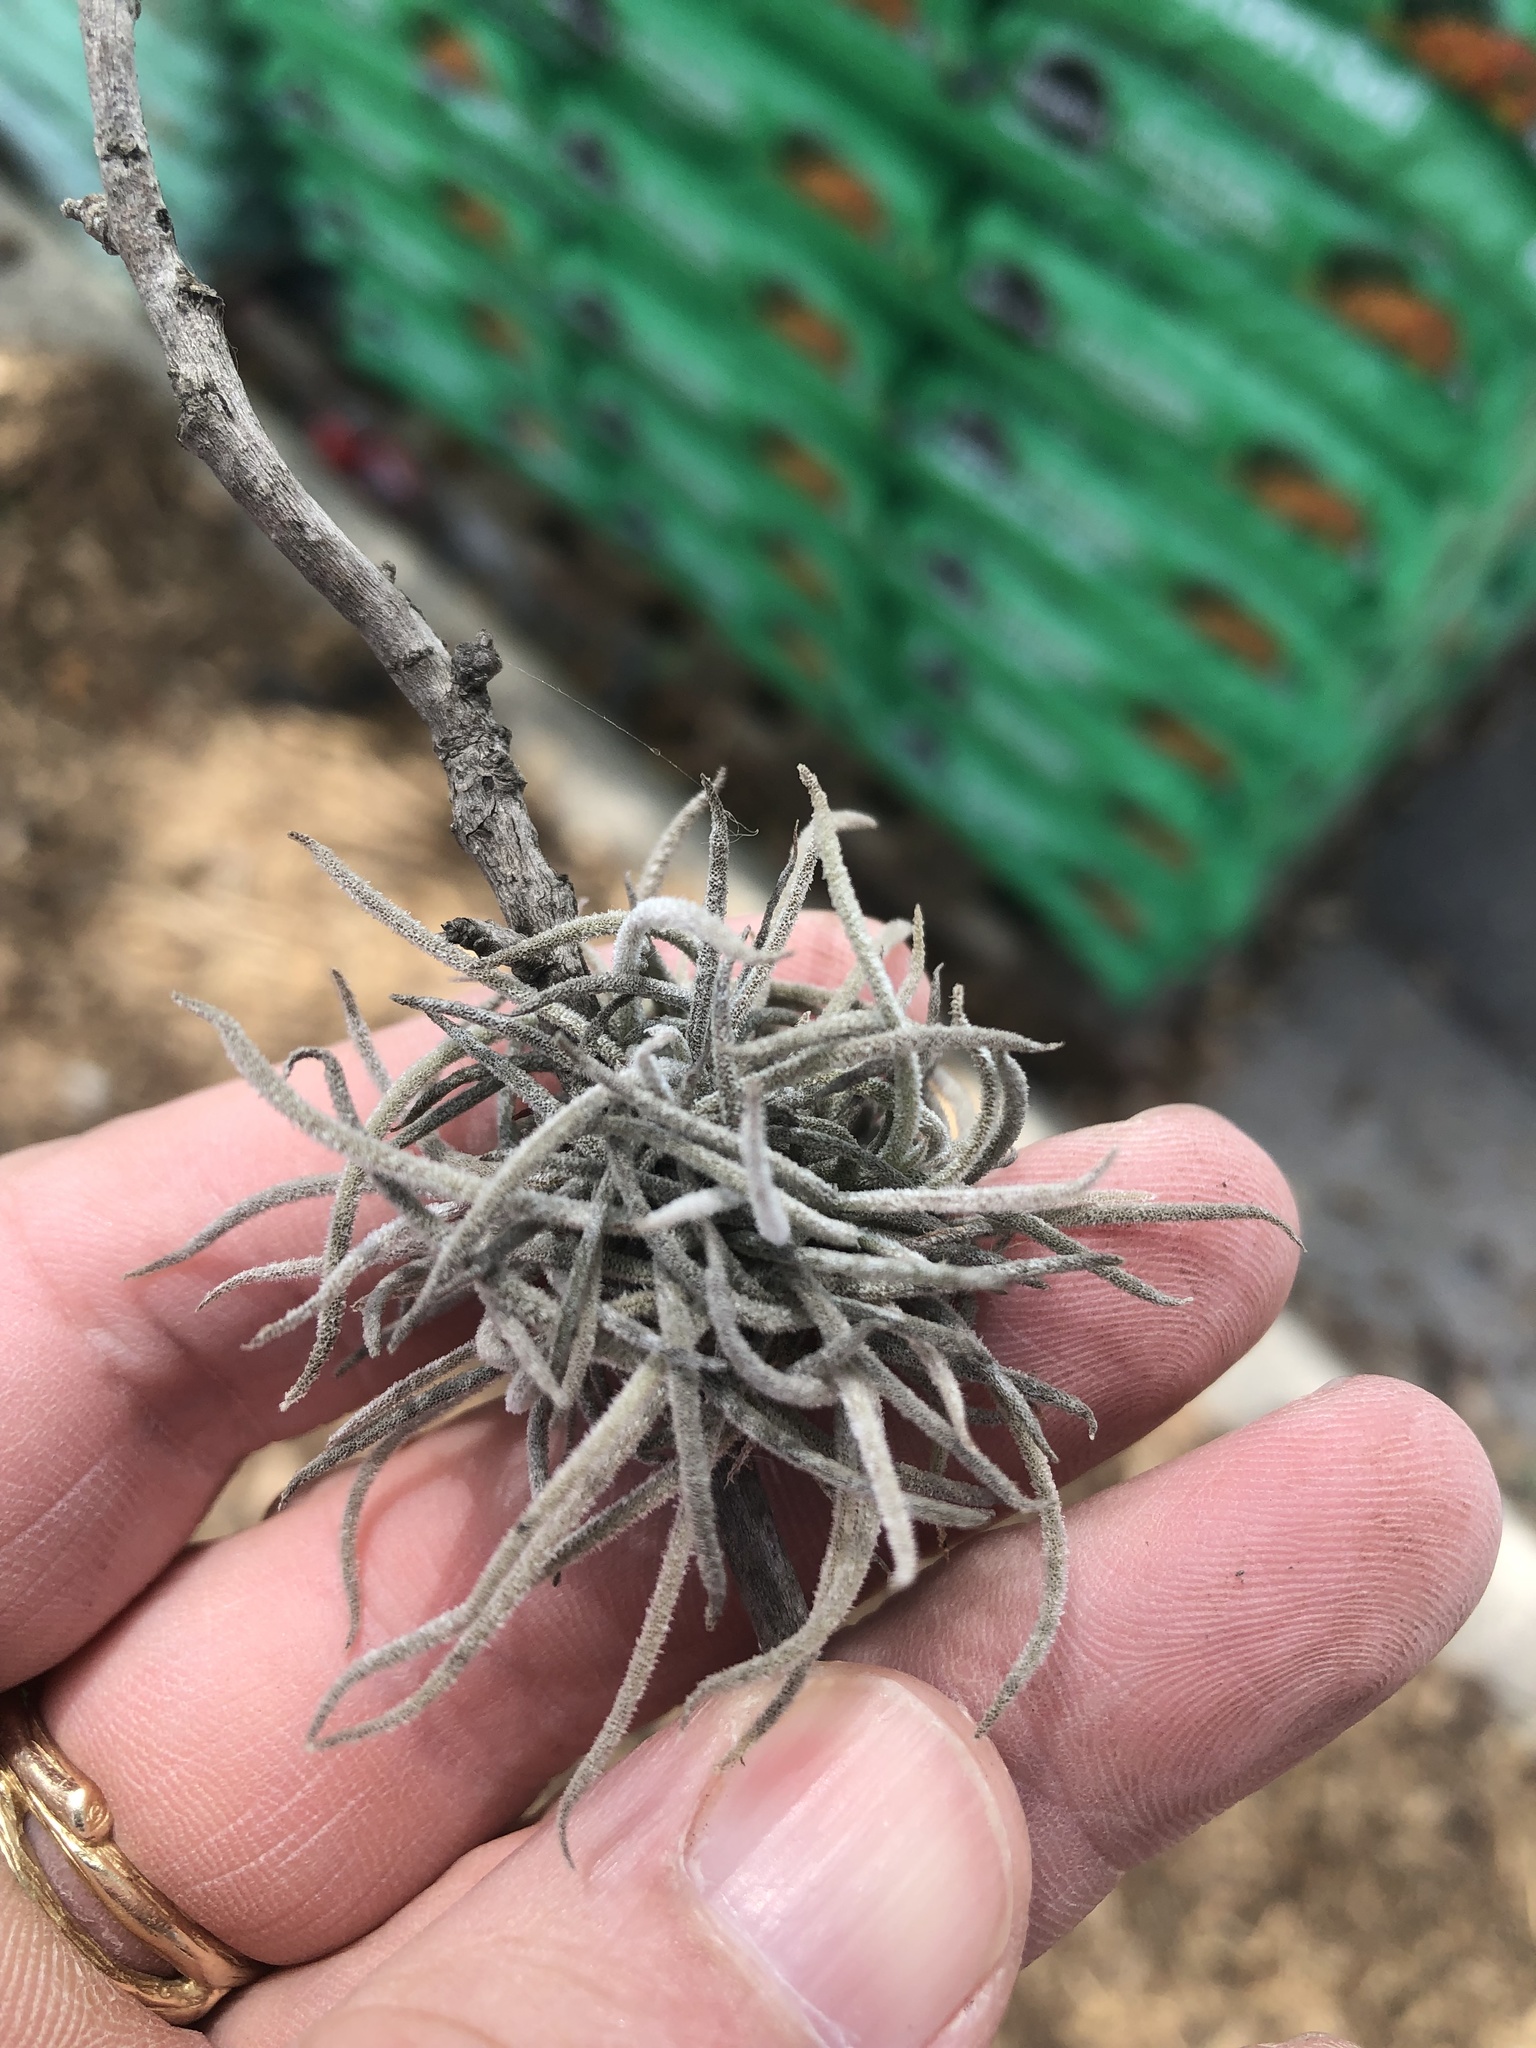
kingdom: Plantae
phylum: Tracheophyta
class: Liliopsida
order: Poales
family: Bromeliaceae
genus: Tillandsia
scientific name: Tillandsia recurvata
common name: Small ballmoss
